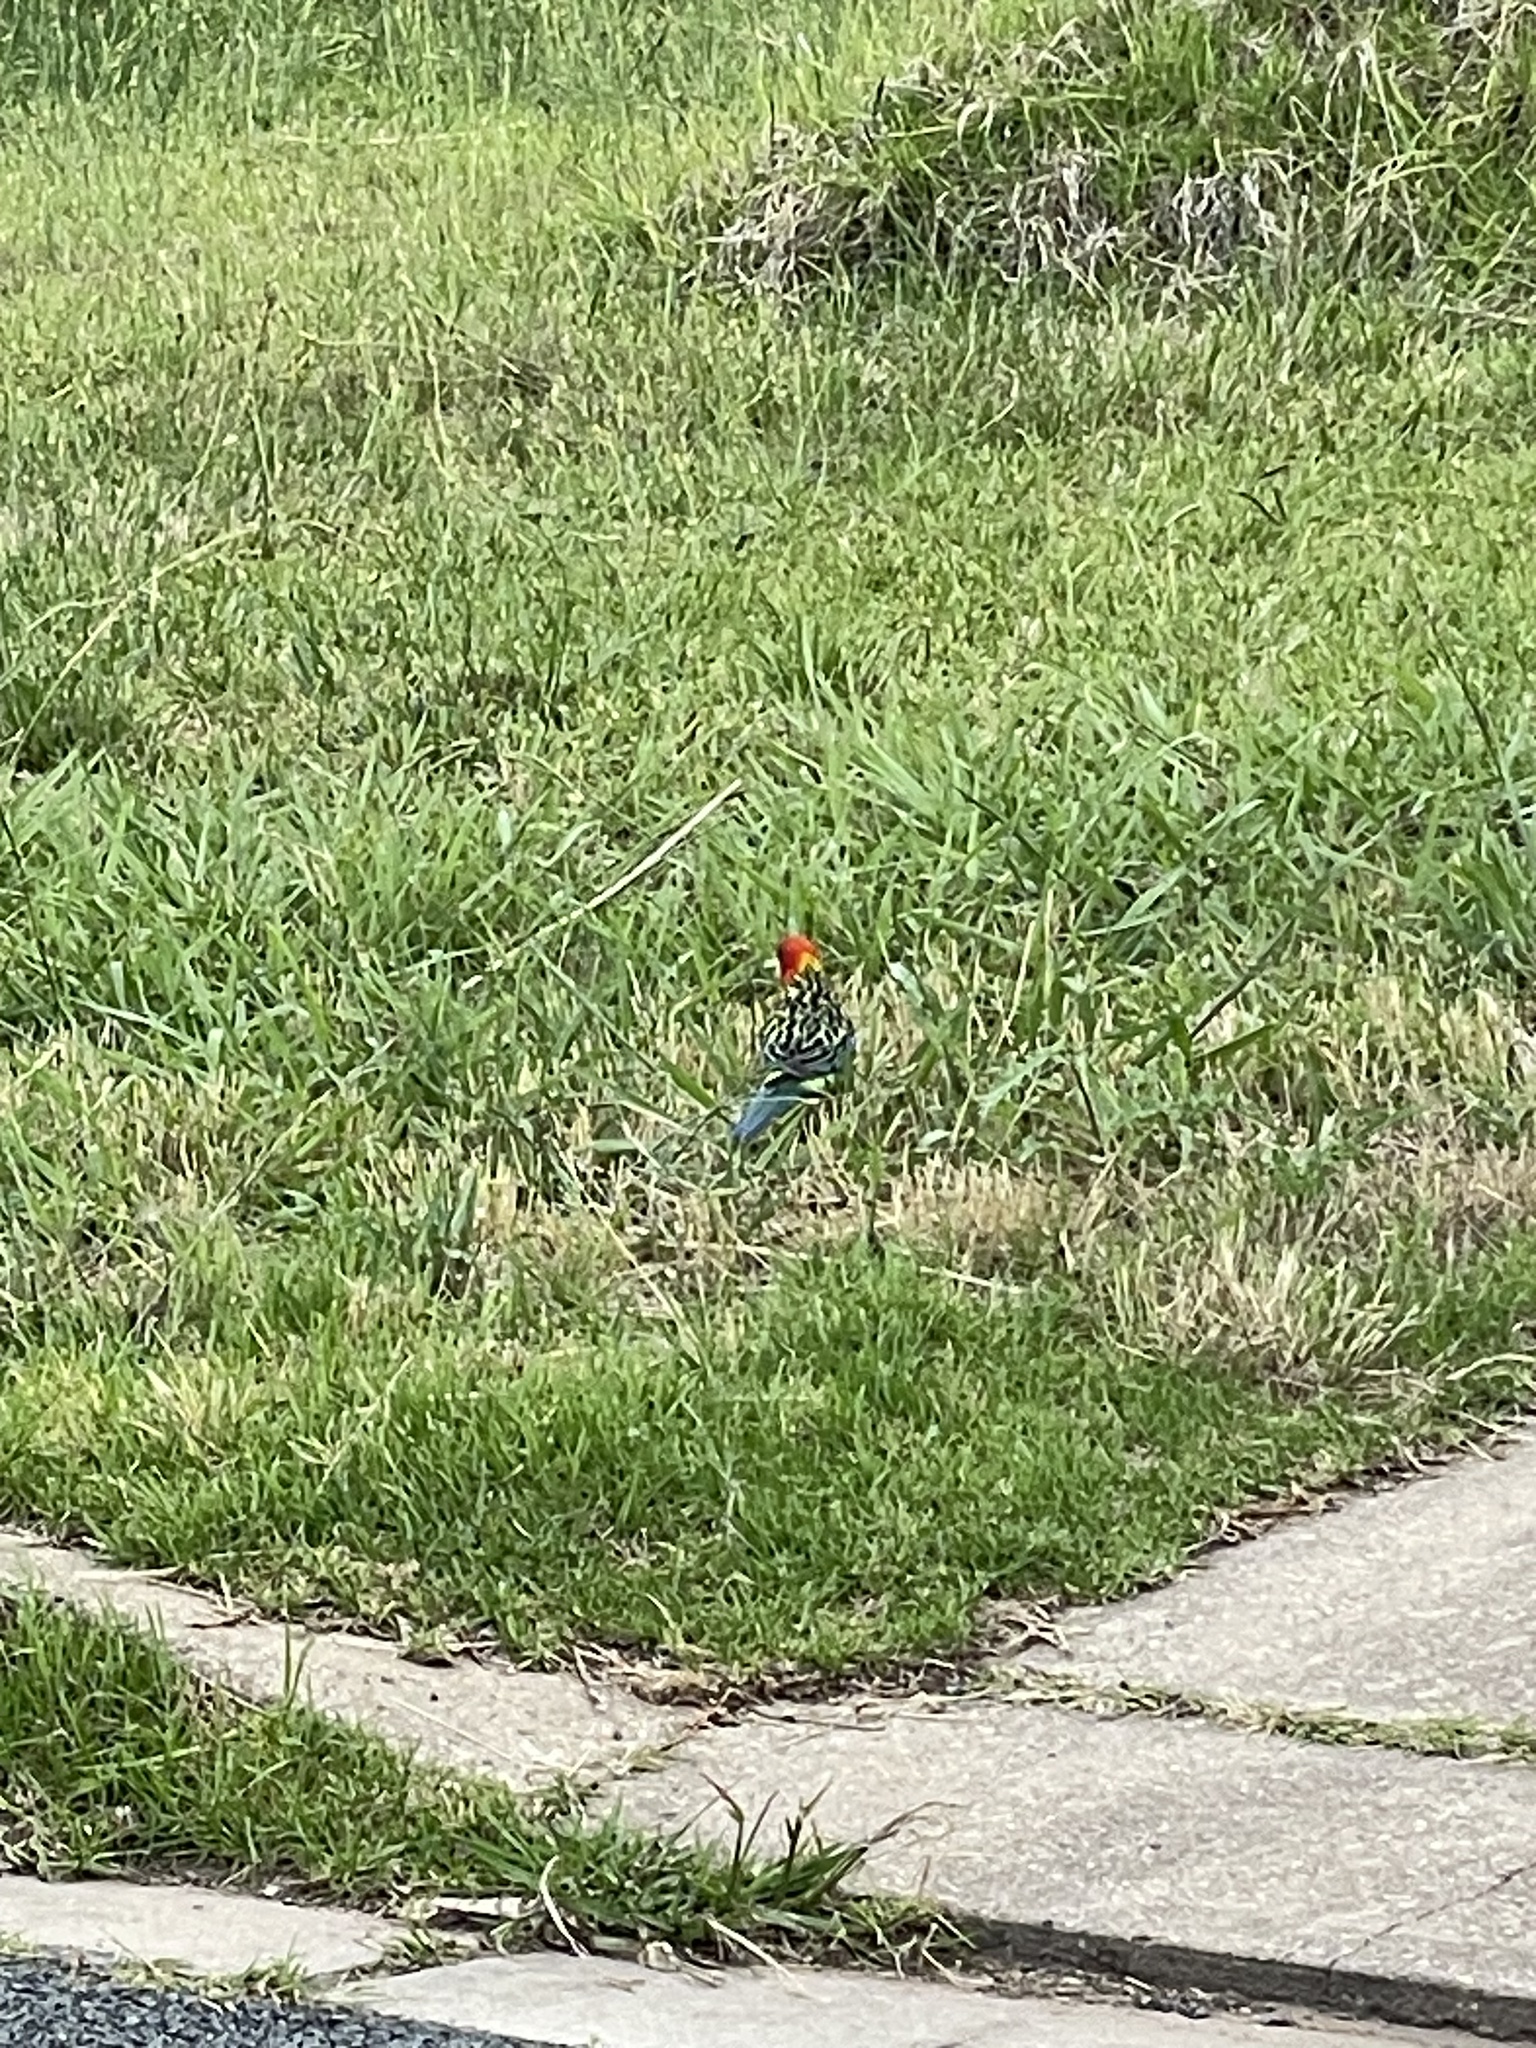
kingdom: Animalia
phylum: Chordata
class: Aves
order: Psittaciformes
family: Psittacidae
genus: Platycercus
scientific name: Platycercus eximius
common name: Eastern rosella
